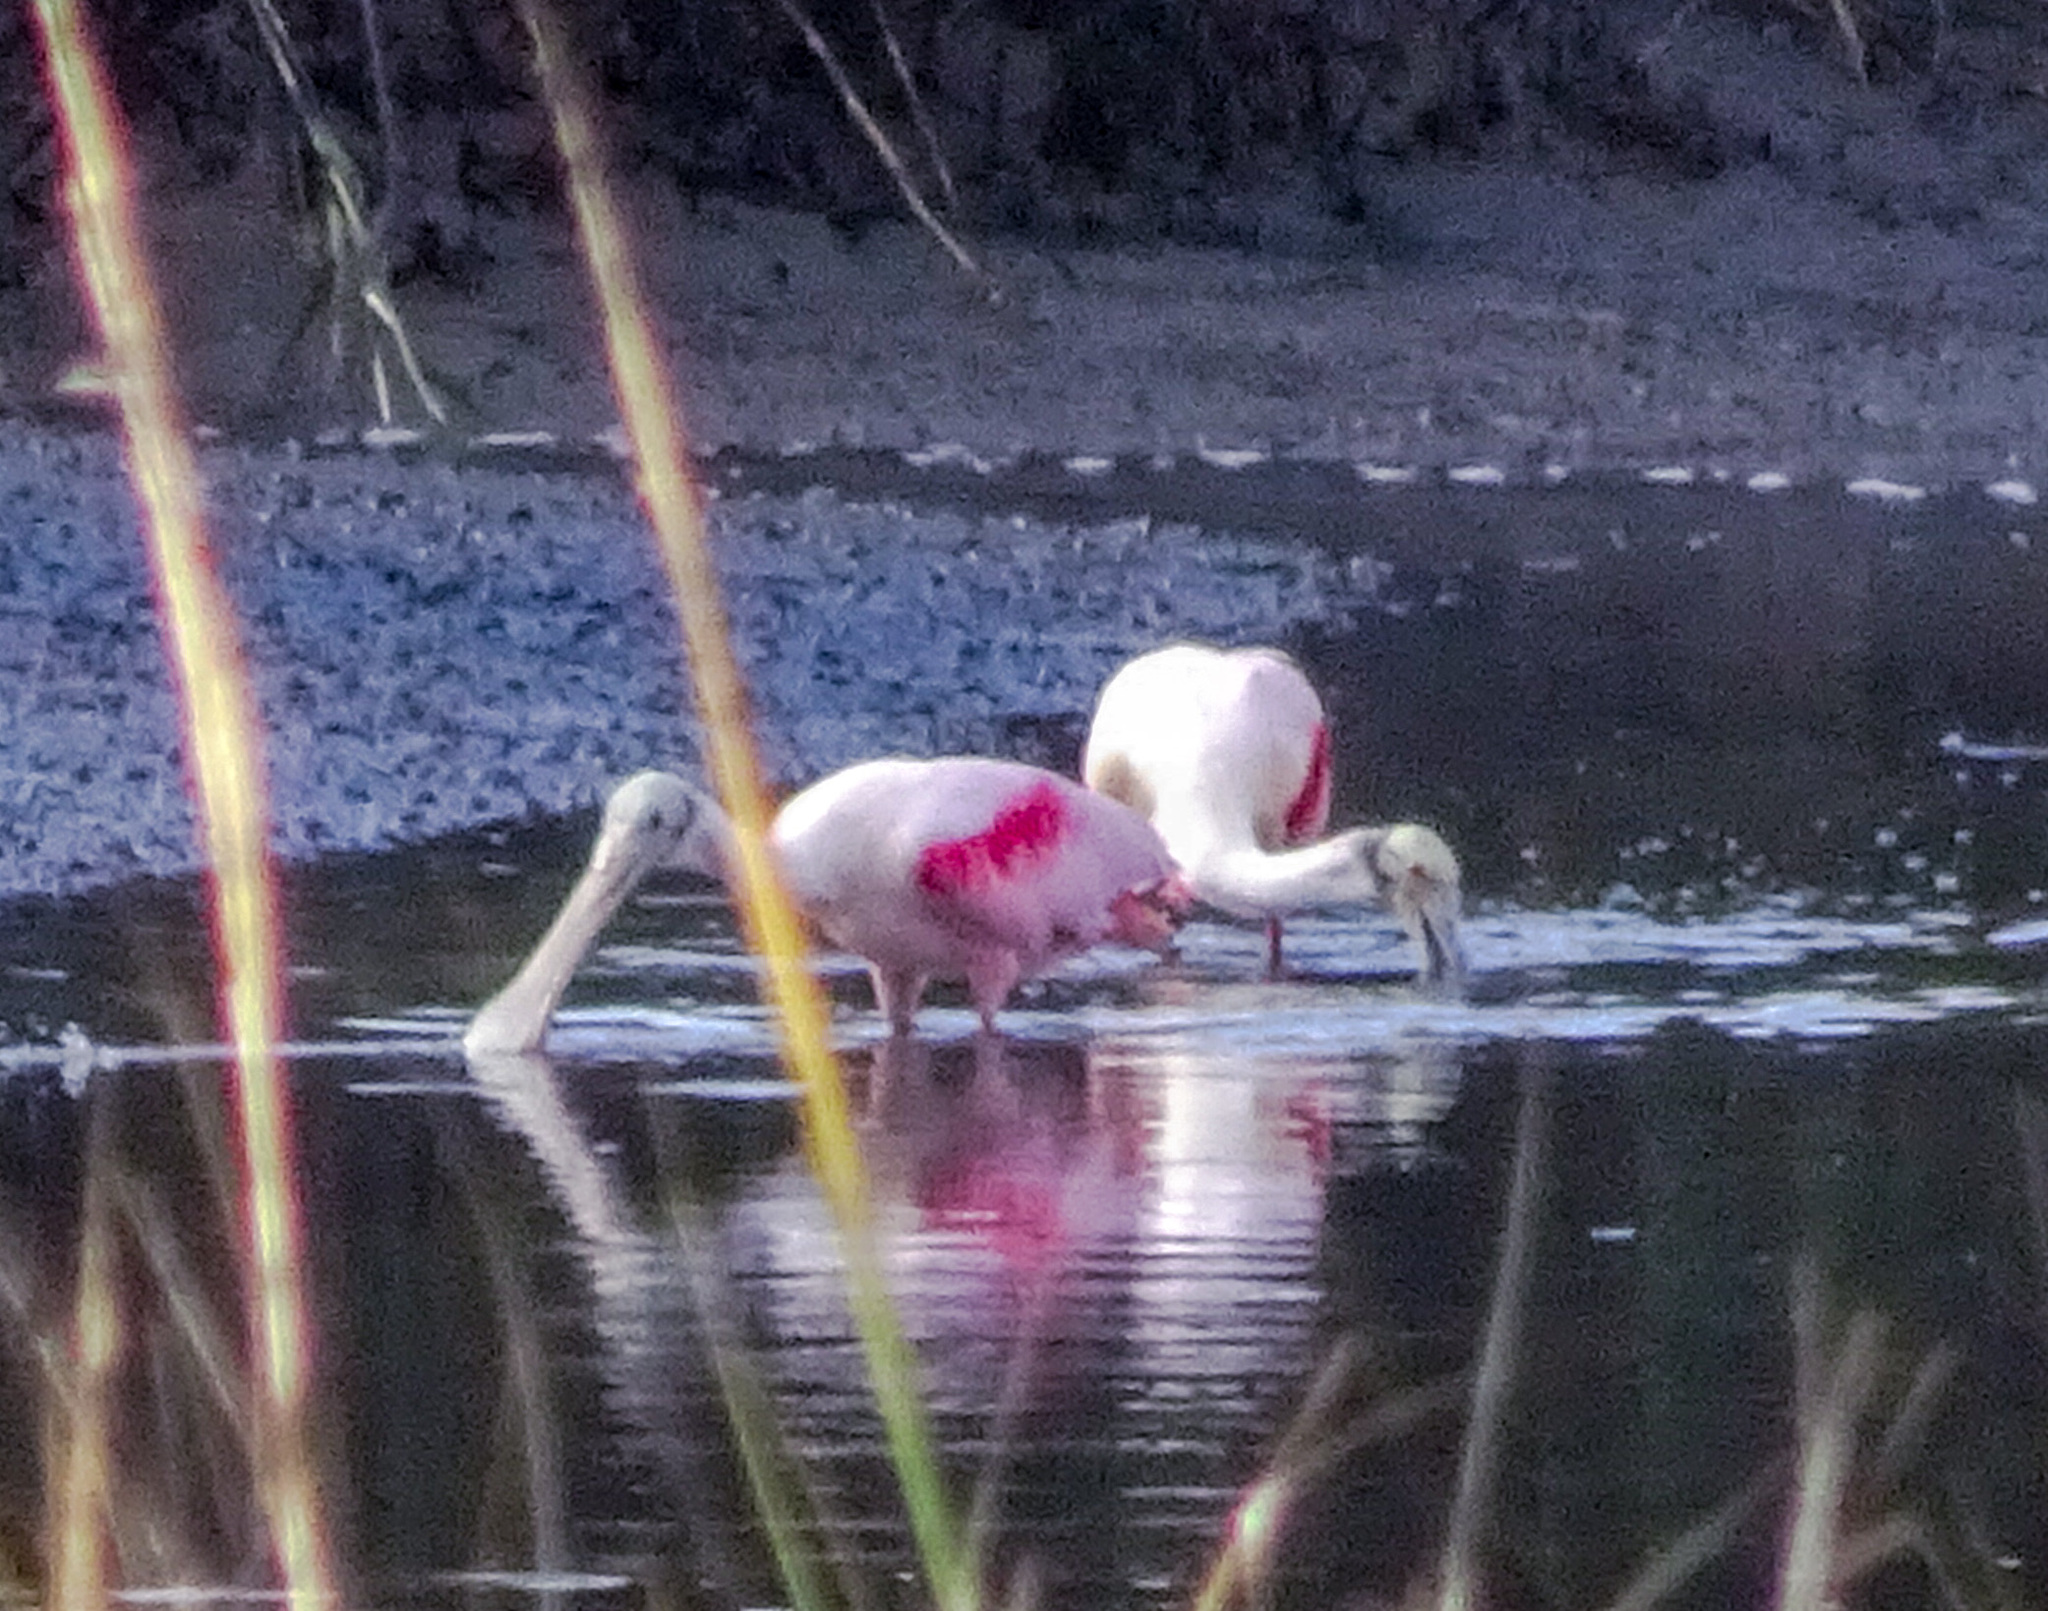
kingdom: Animalia
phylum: Chordata
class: Aves
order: Pelecaniformes
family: Threskiornithidae
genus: Platalea
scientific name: Platalea ajaja
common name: Roseate spoonbill
